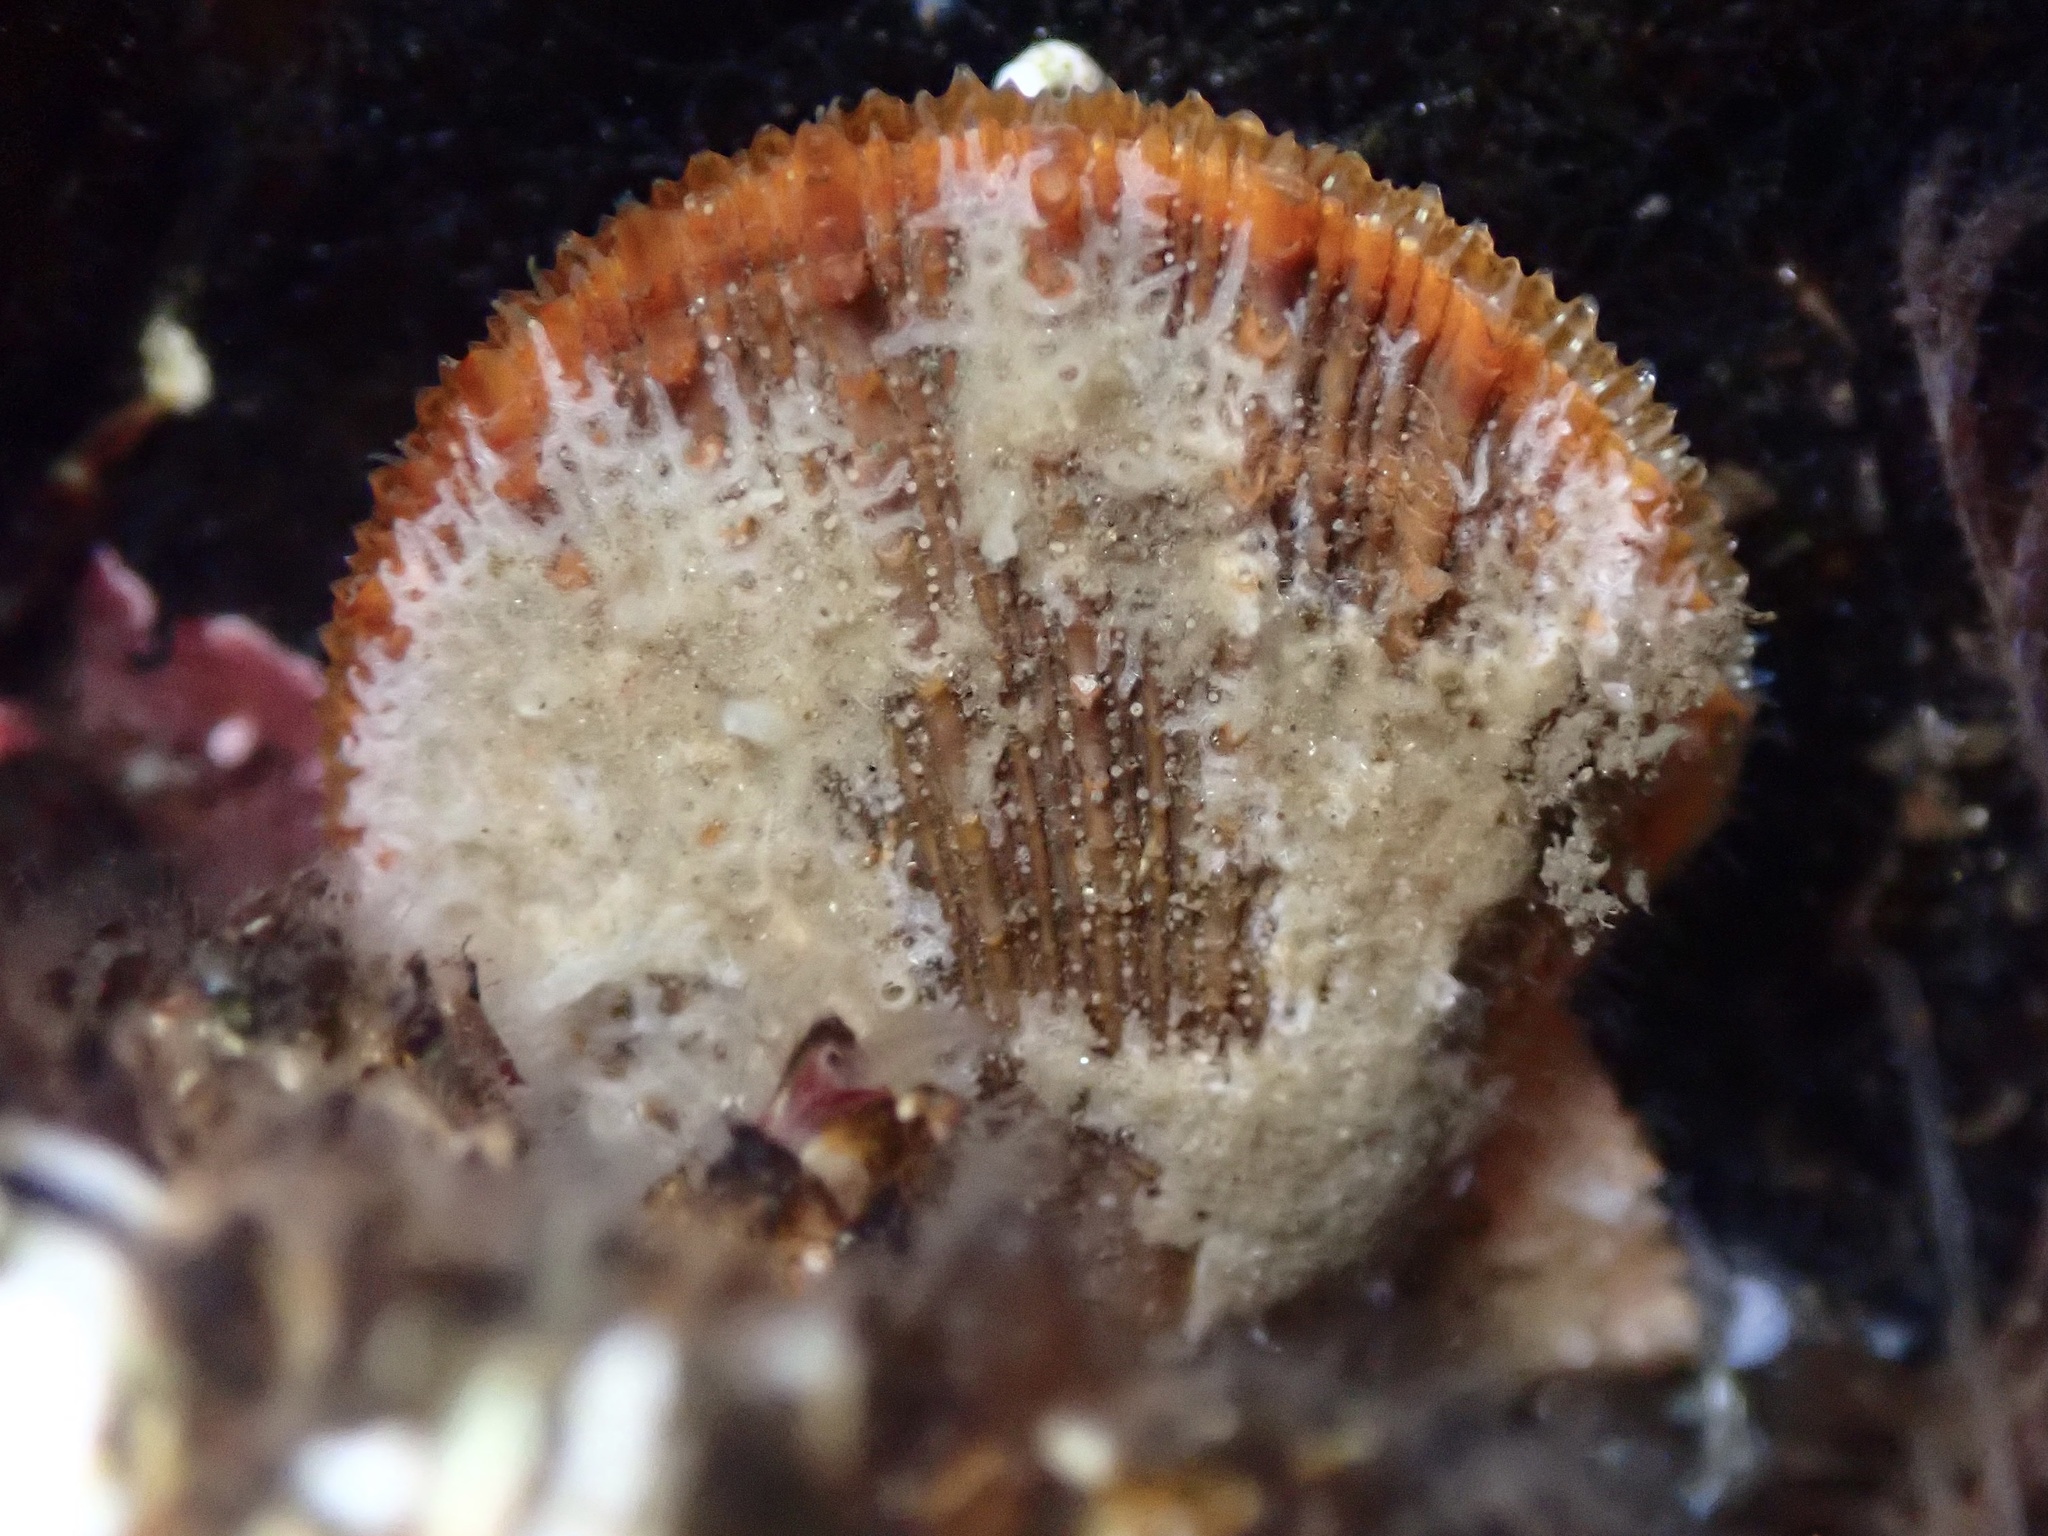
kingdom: Animalia
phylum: Mollusca
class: Bivalvia
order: Pectinida
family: Pectinidae
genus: Crassadoma
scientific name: Crassadoma gigantea
